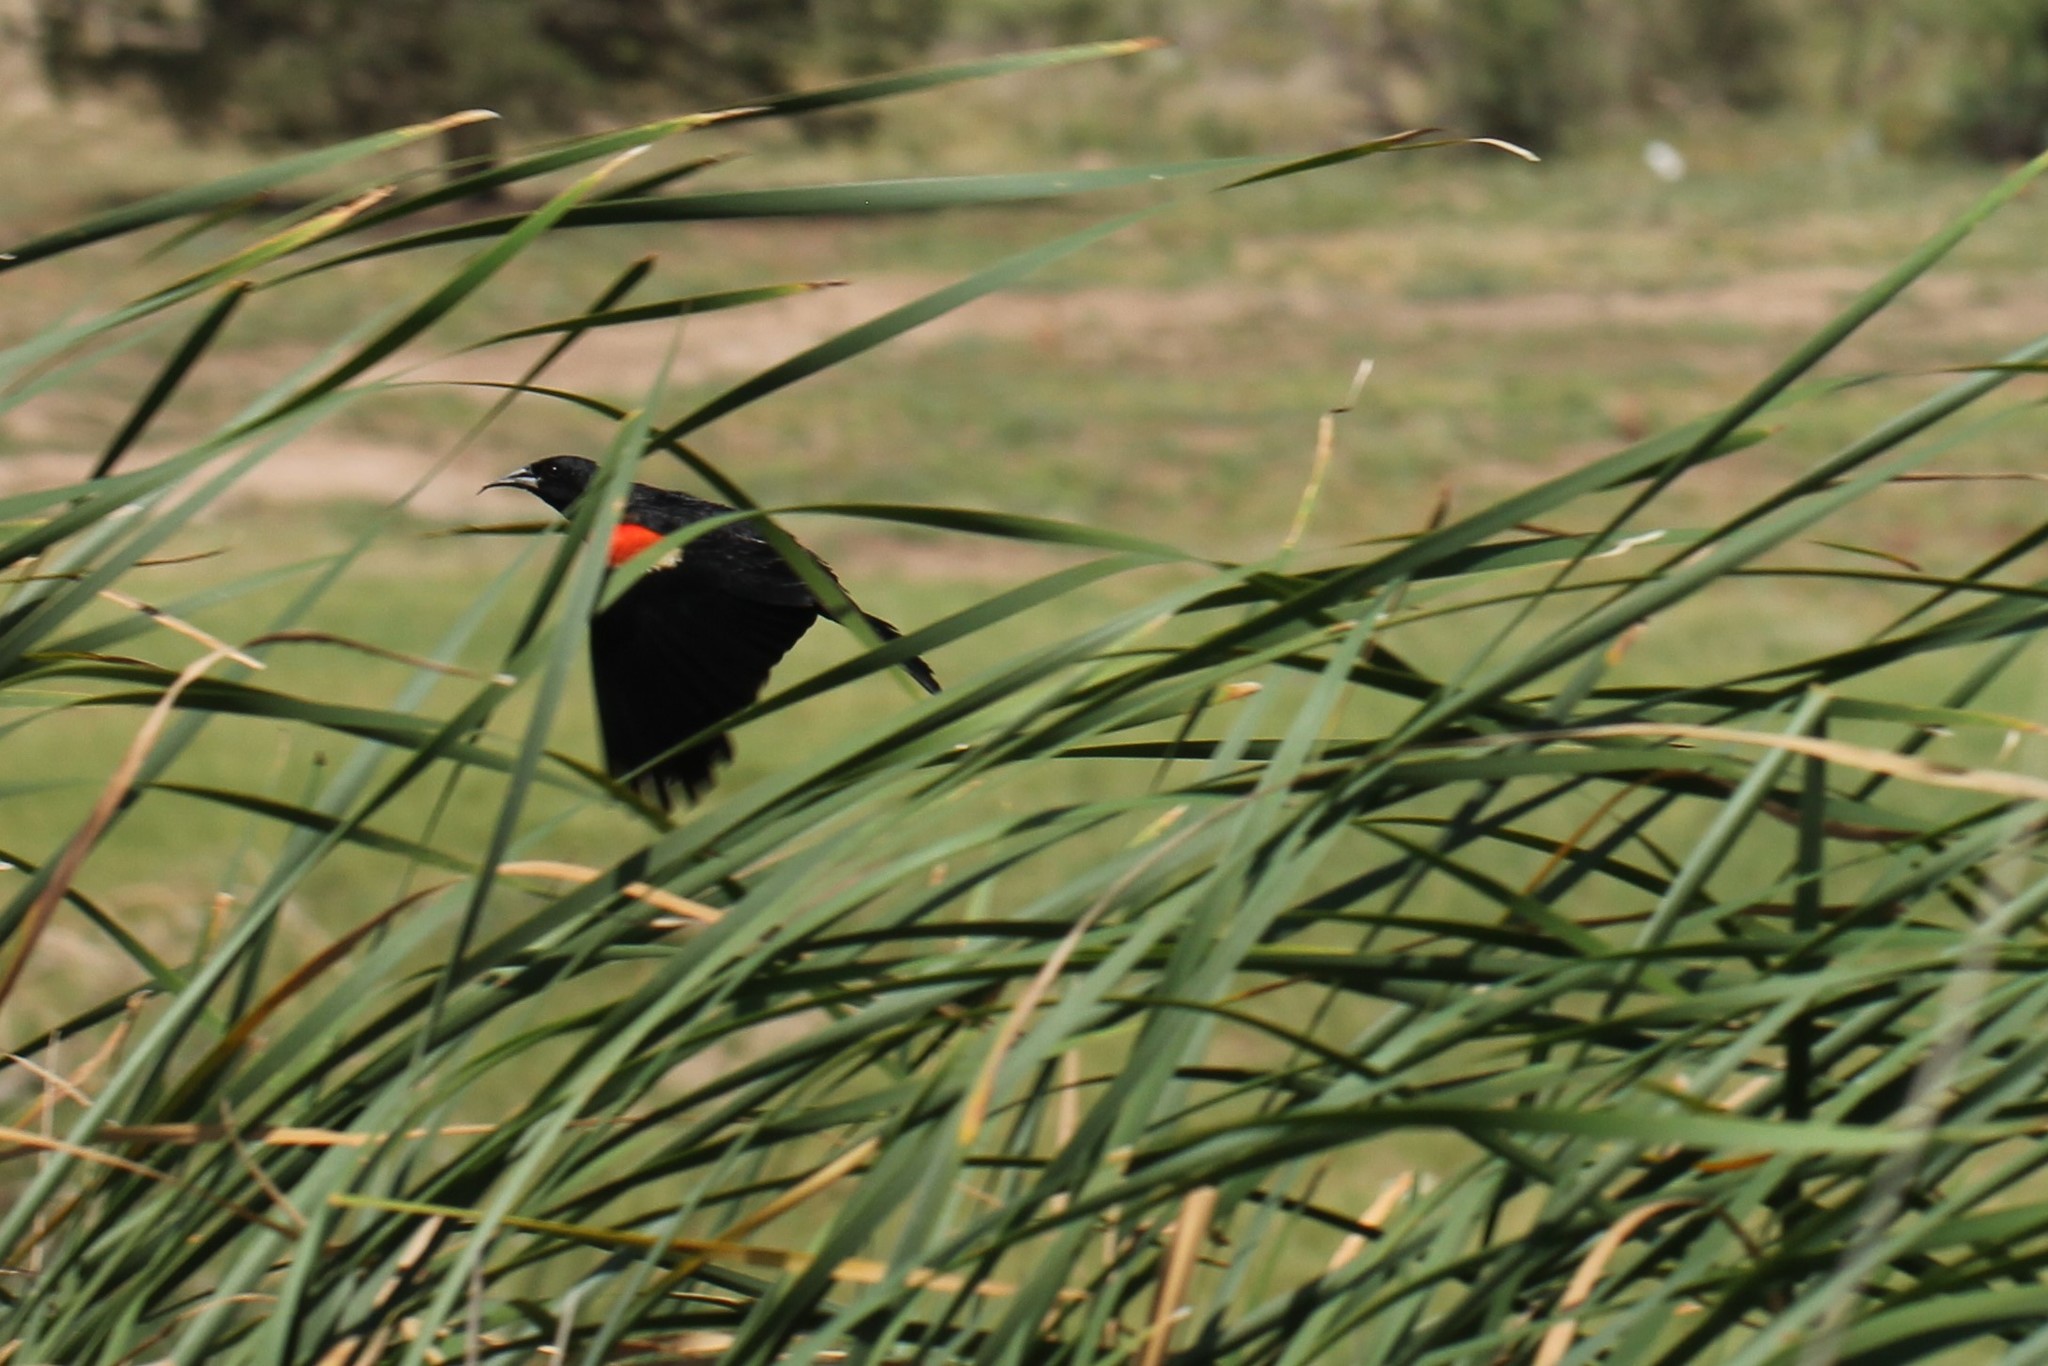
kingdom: Animalia
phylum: Chordata
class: Aves
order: Passeriformes
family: Icteridae
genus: Agelaius
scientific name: Agelaius phoeniceus
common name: Red-winged blackbird
